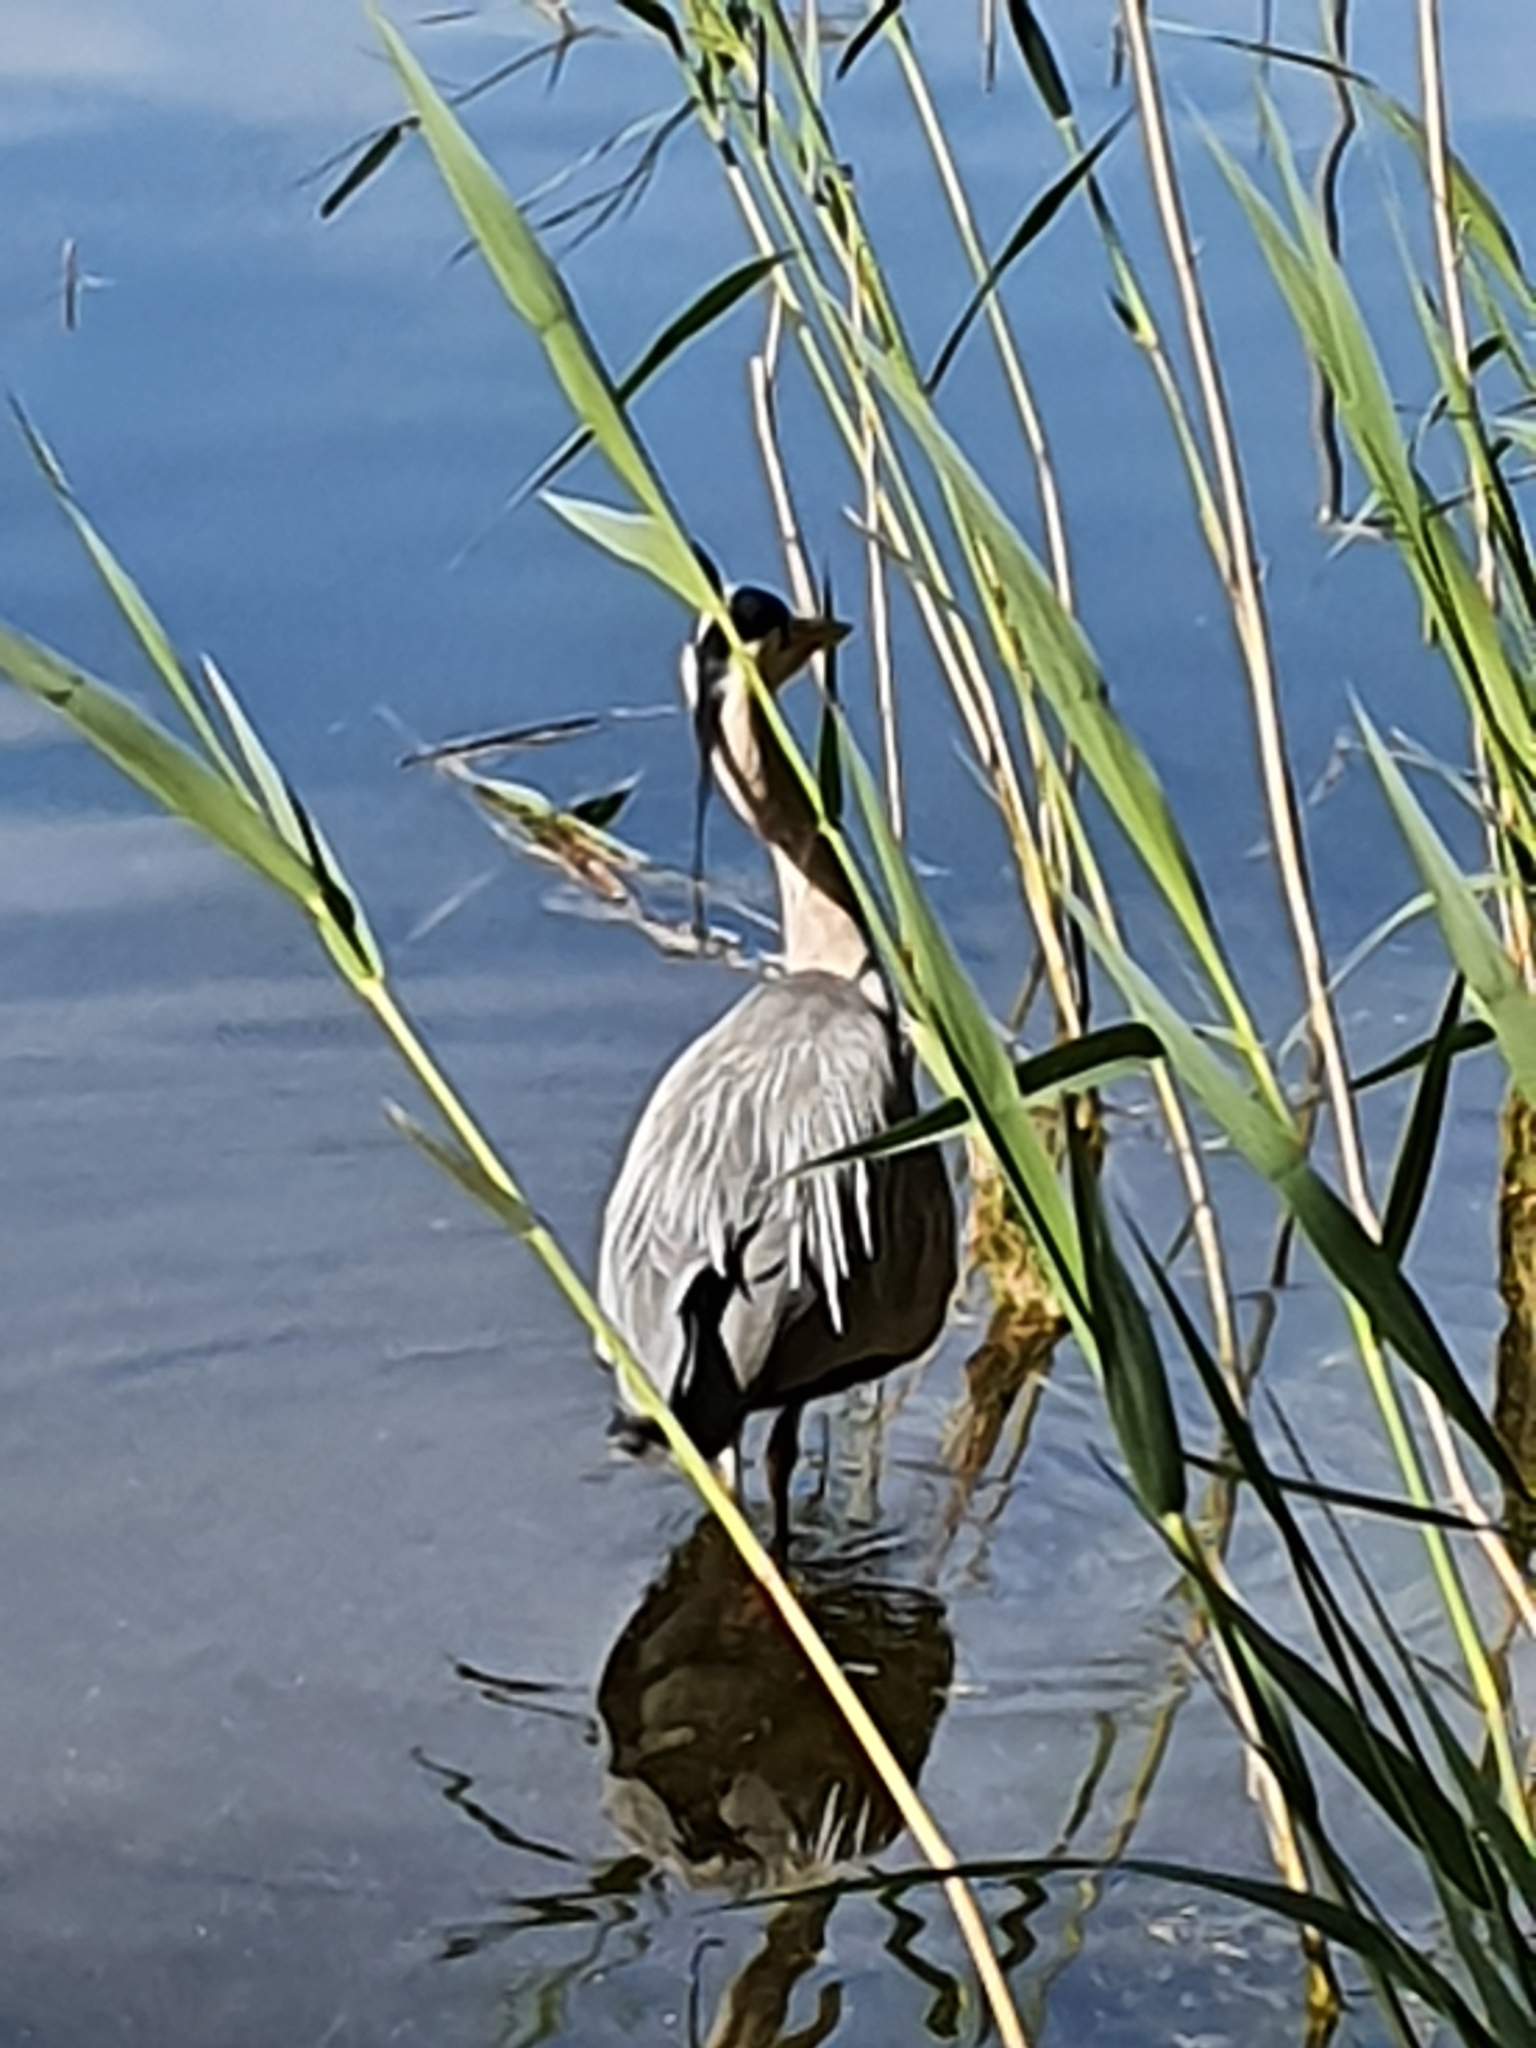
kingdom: Animalia
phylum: Chordata
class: Aves
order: Pelecaniformes
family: Ardeidae
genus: Ardea
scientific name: Ardea cinerea
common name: Grey heron
